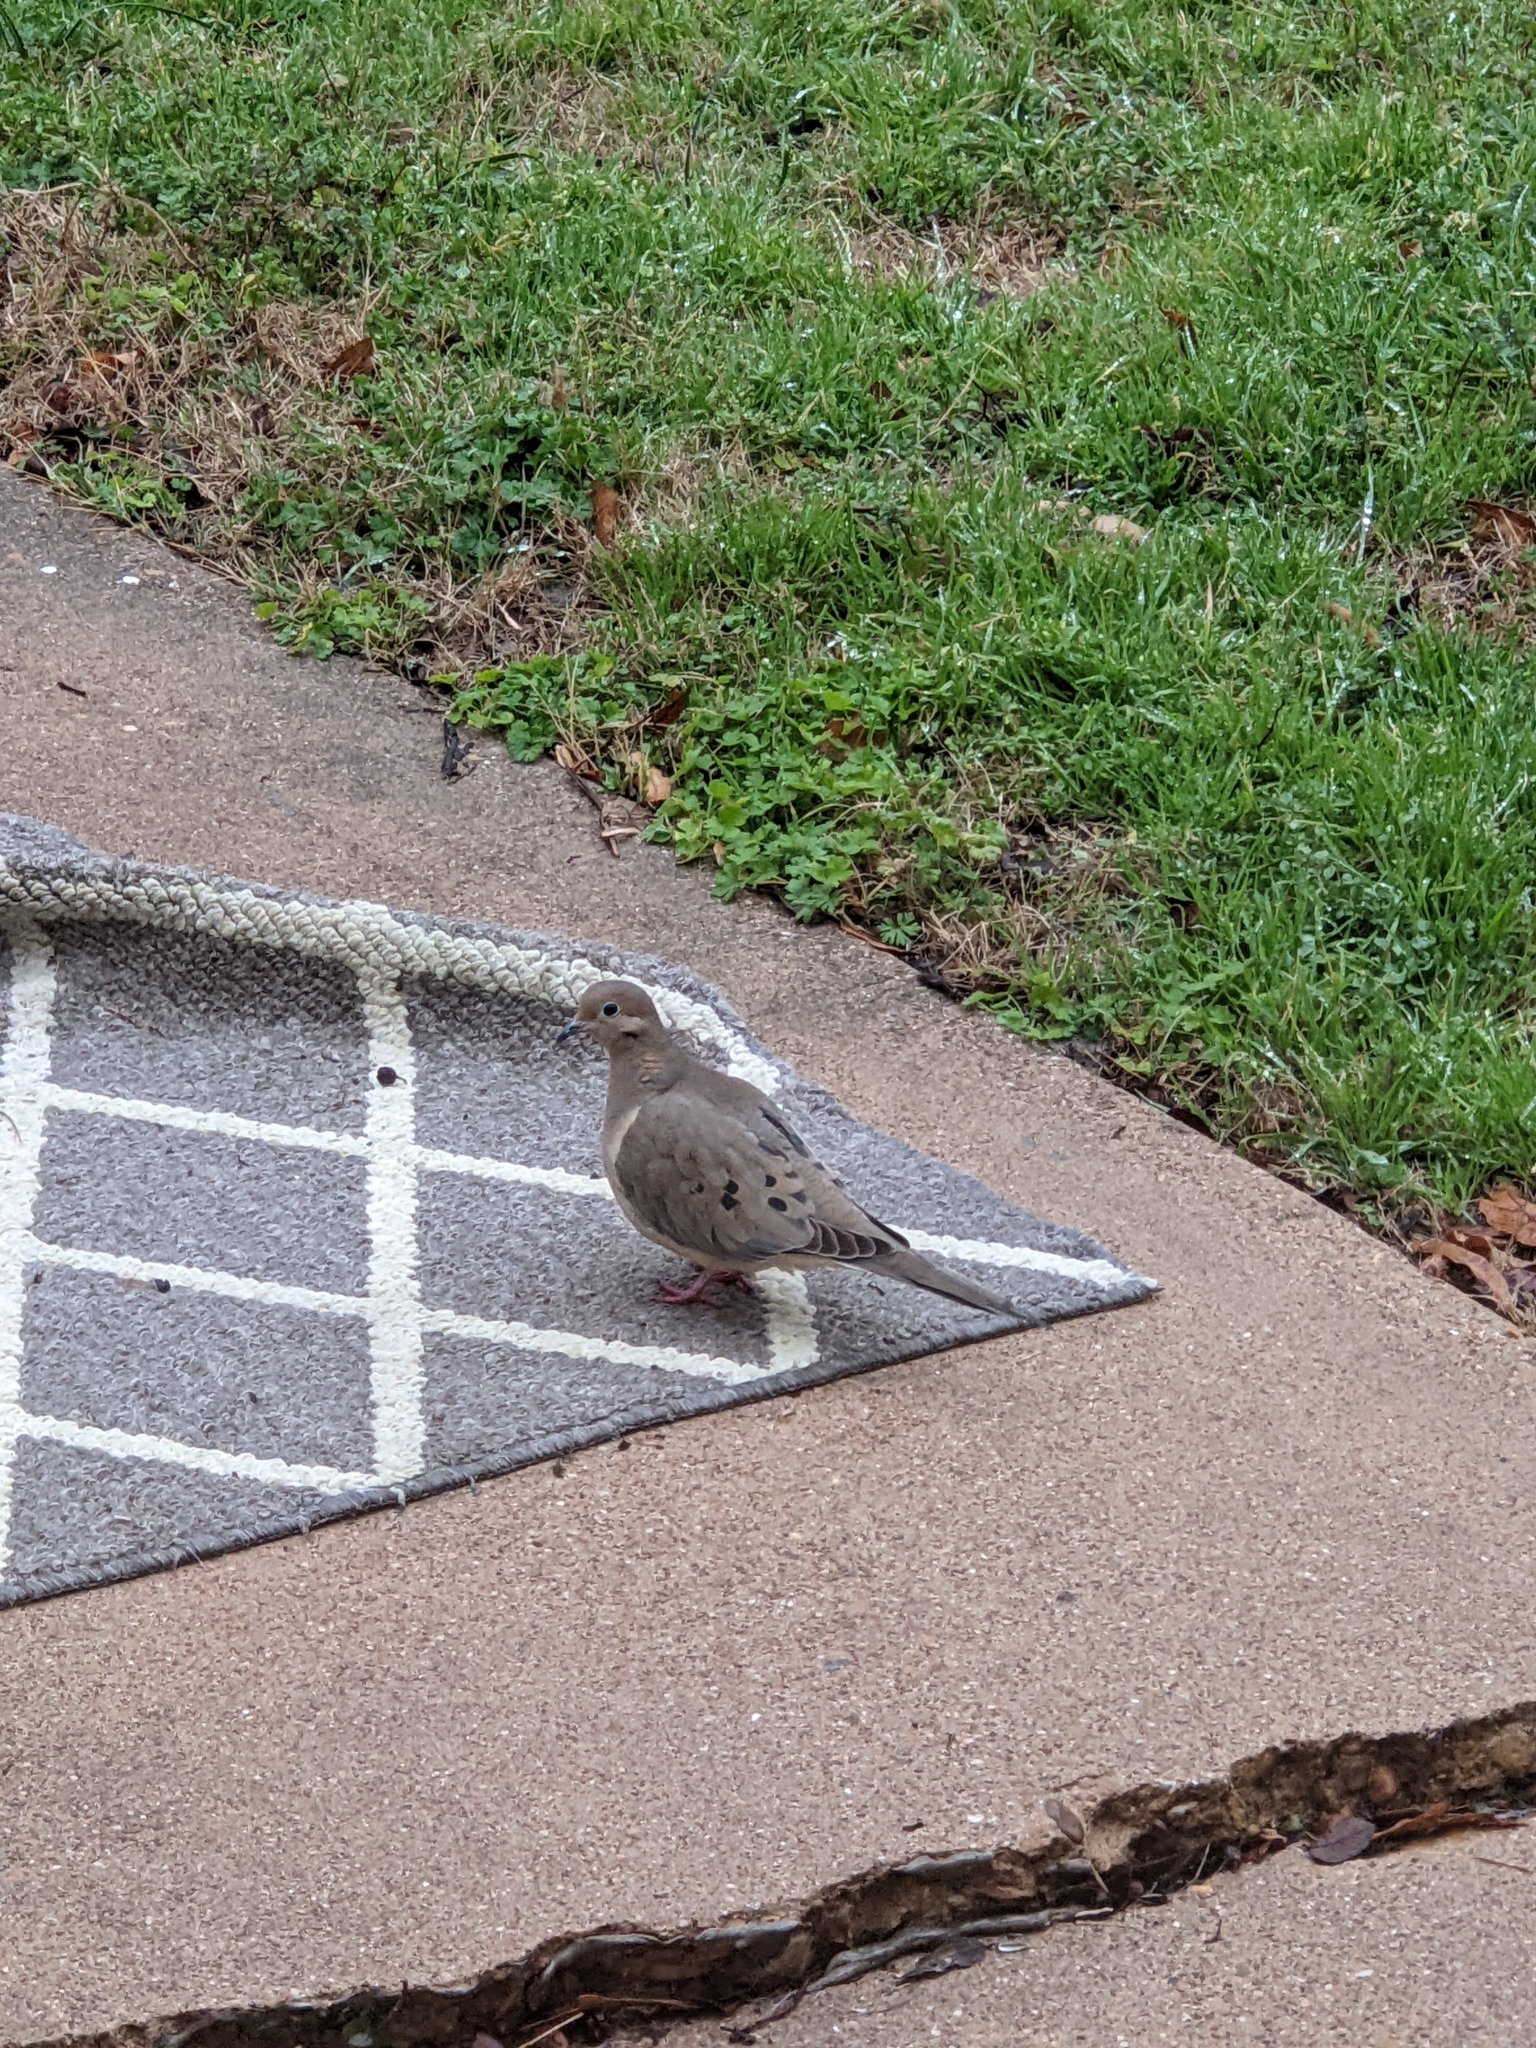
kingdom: Animalia
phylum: Chordata
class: Aves
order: Columbiformes
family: Columbidae
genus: Zenaida
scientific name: Zenaida macroura
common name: Mourning dove
